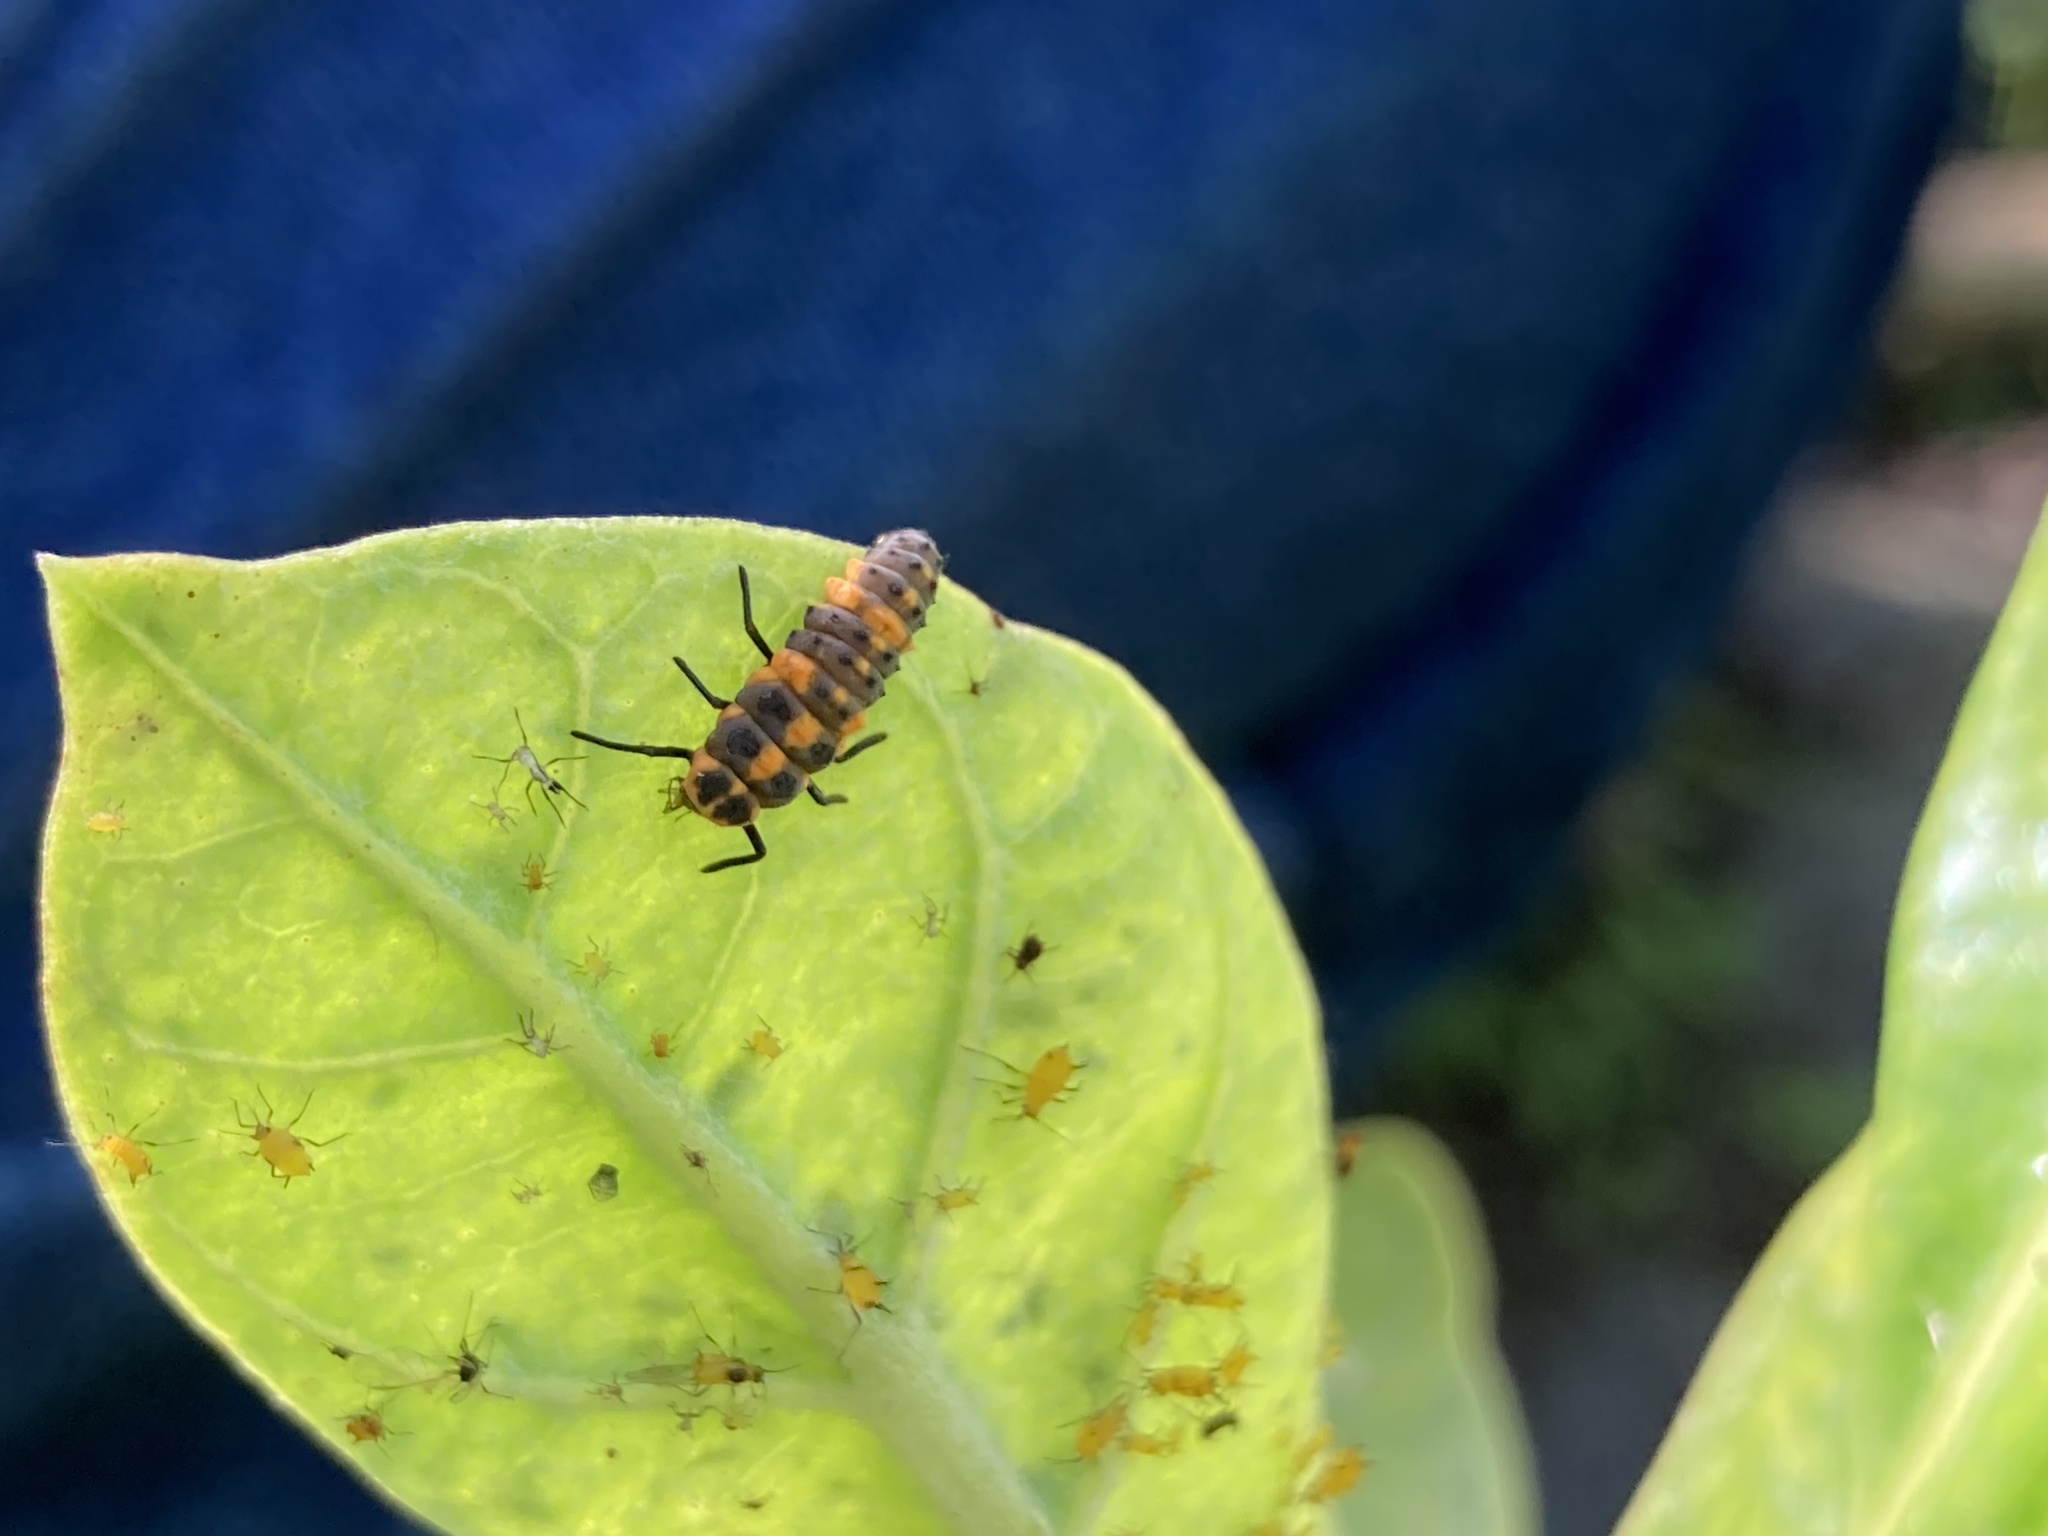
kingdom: Animalia
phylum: Arthropoda
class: Insecta
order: Coleoptera
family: Coccinellidae
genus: Cycloneda
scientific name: Cycloneda sanguinea
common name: Ladybird beetle
